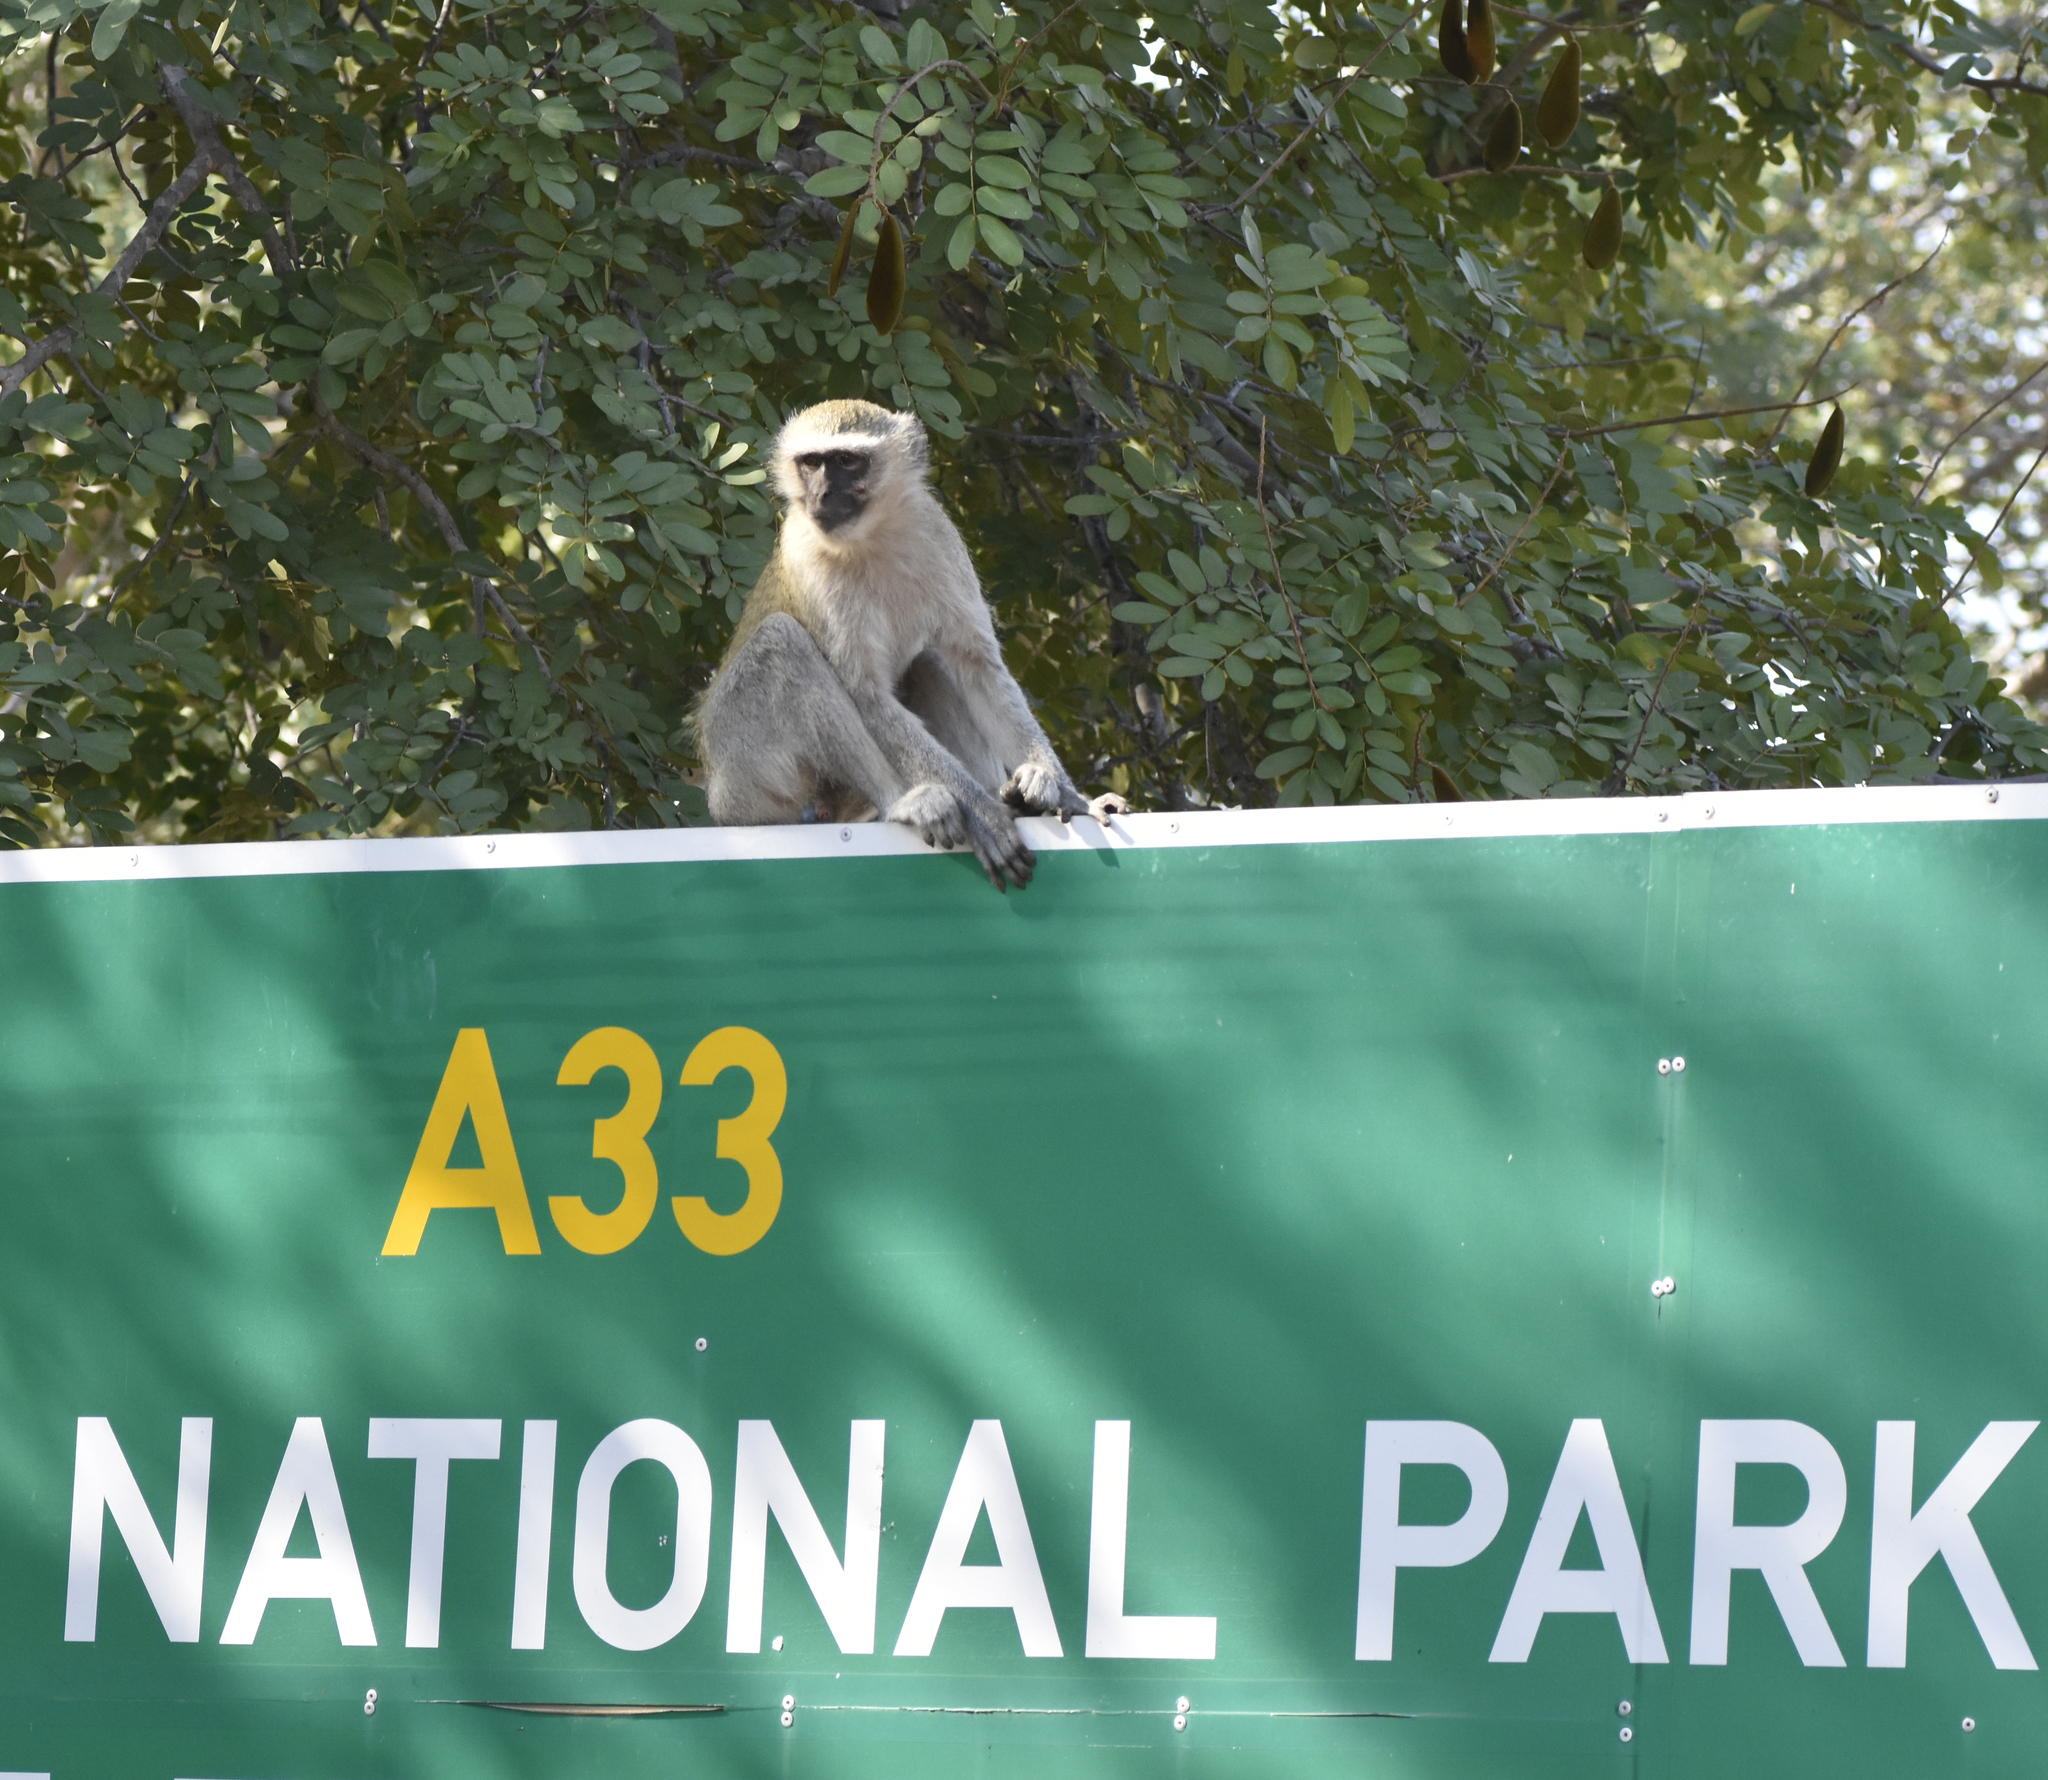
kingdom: Animalia
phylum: Chordata
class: Mammalia
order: Primates
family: Cercopithecidae
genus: Chlorocebus
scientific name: Chlorocebus pygerythrus
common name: Vervet monkey
